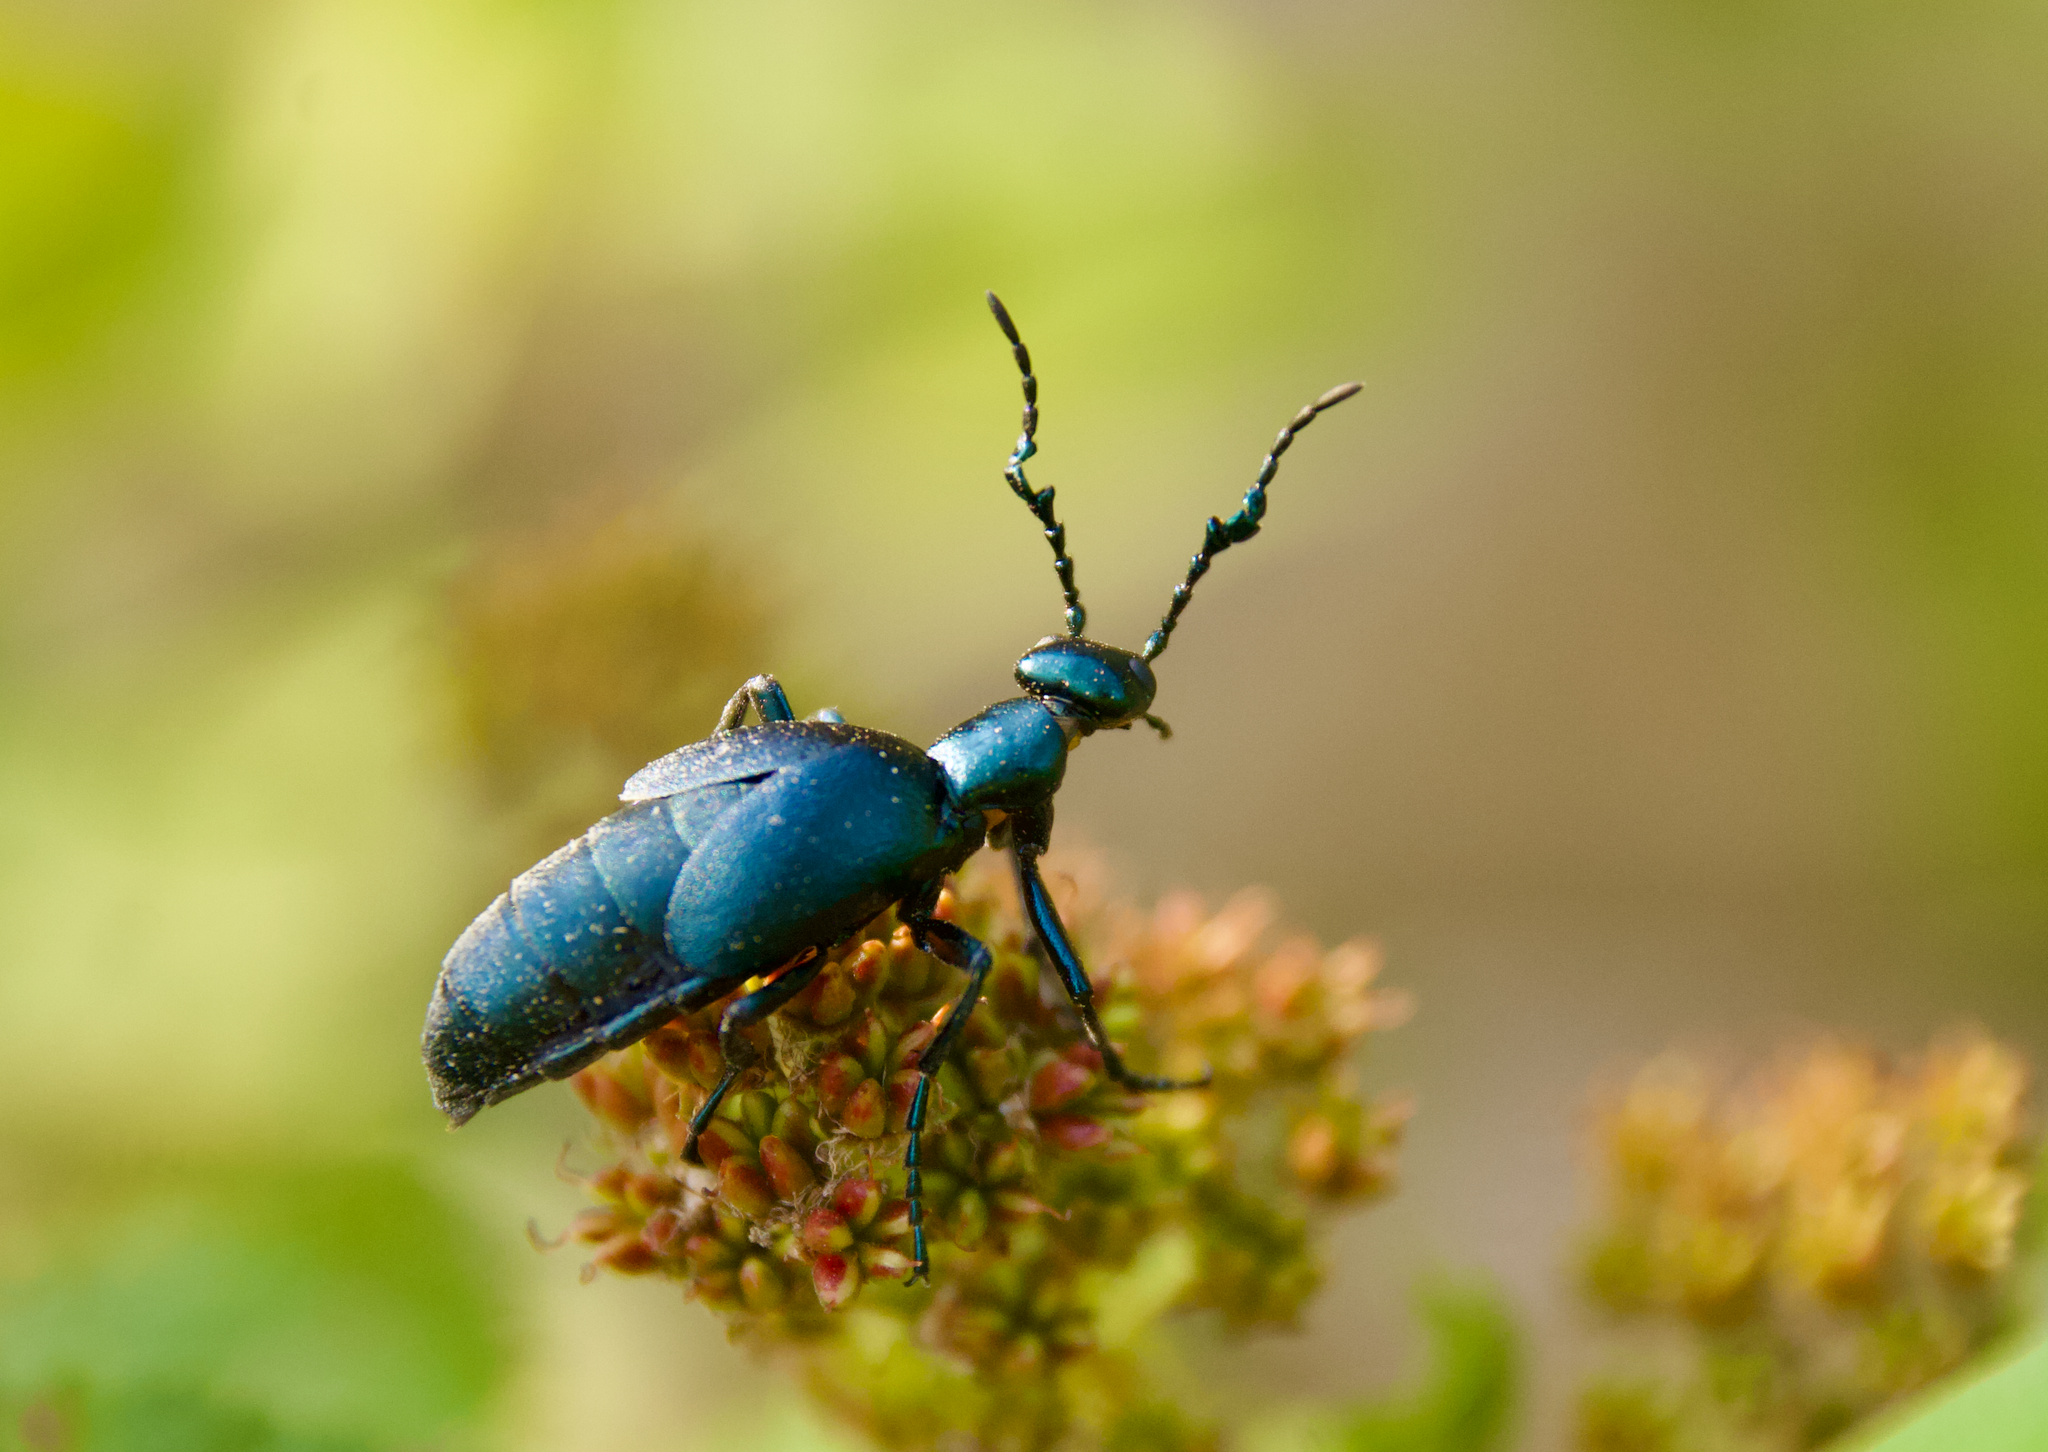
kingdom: Animalia
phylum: Arthropoda
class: Insecta
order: Coleoptera
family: Meloidae
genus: Meloe
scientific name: Meloe impressus
